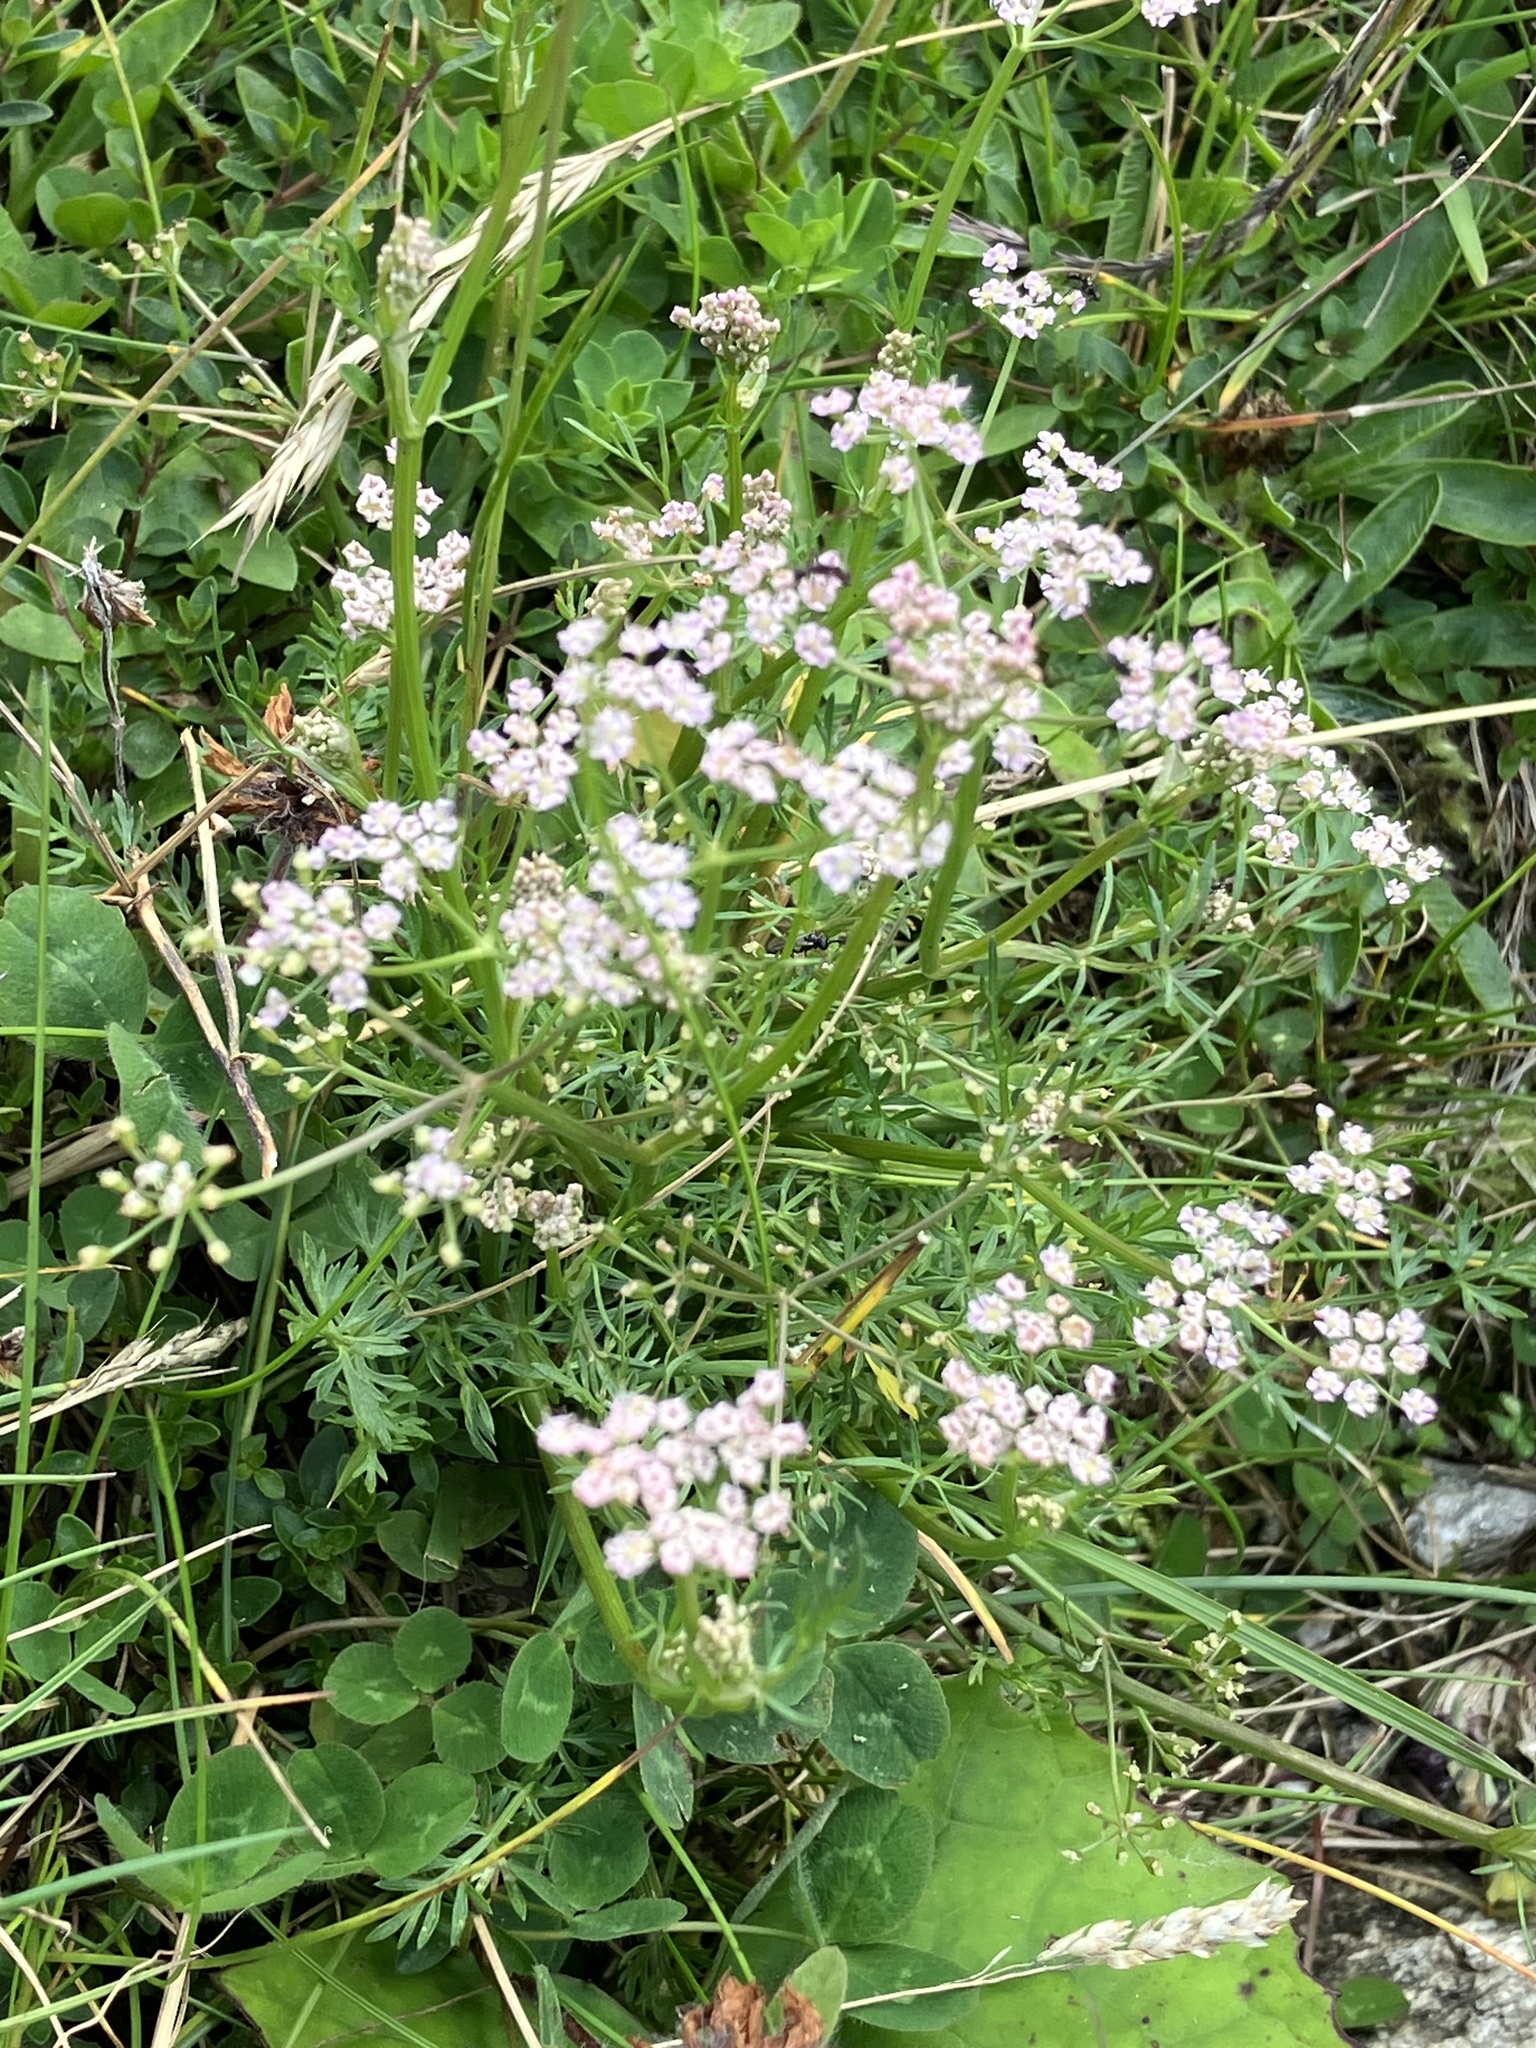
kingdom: Plantae
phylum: Tracheophyta
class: Magnoliopsida
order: Apiales
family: Apiaceae
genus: Carum
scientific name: Carum carvi
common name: Caraway
